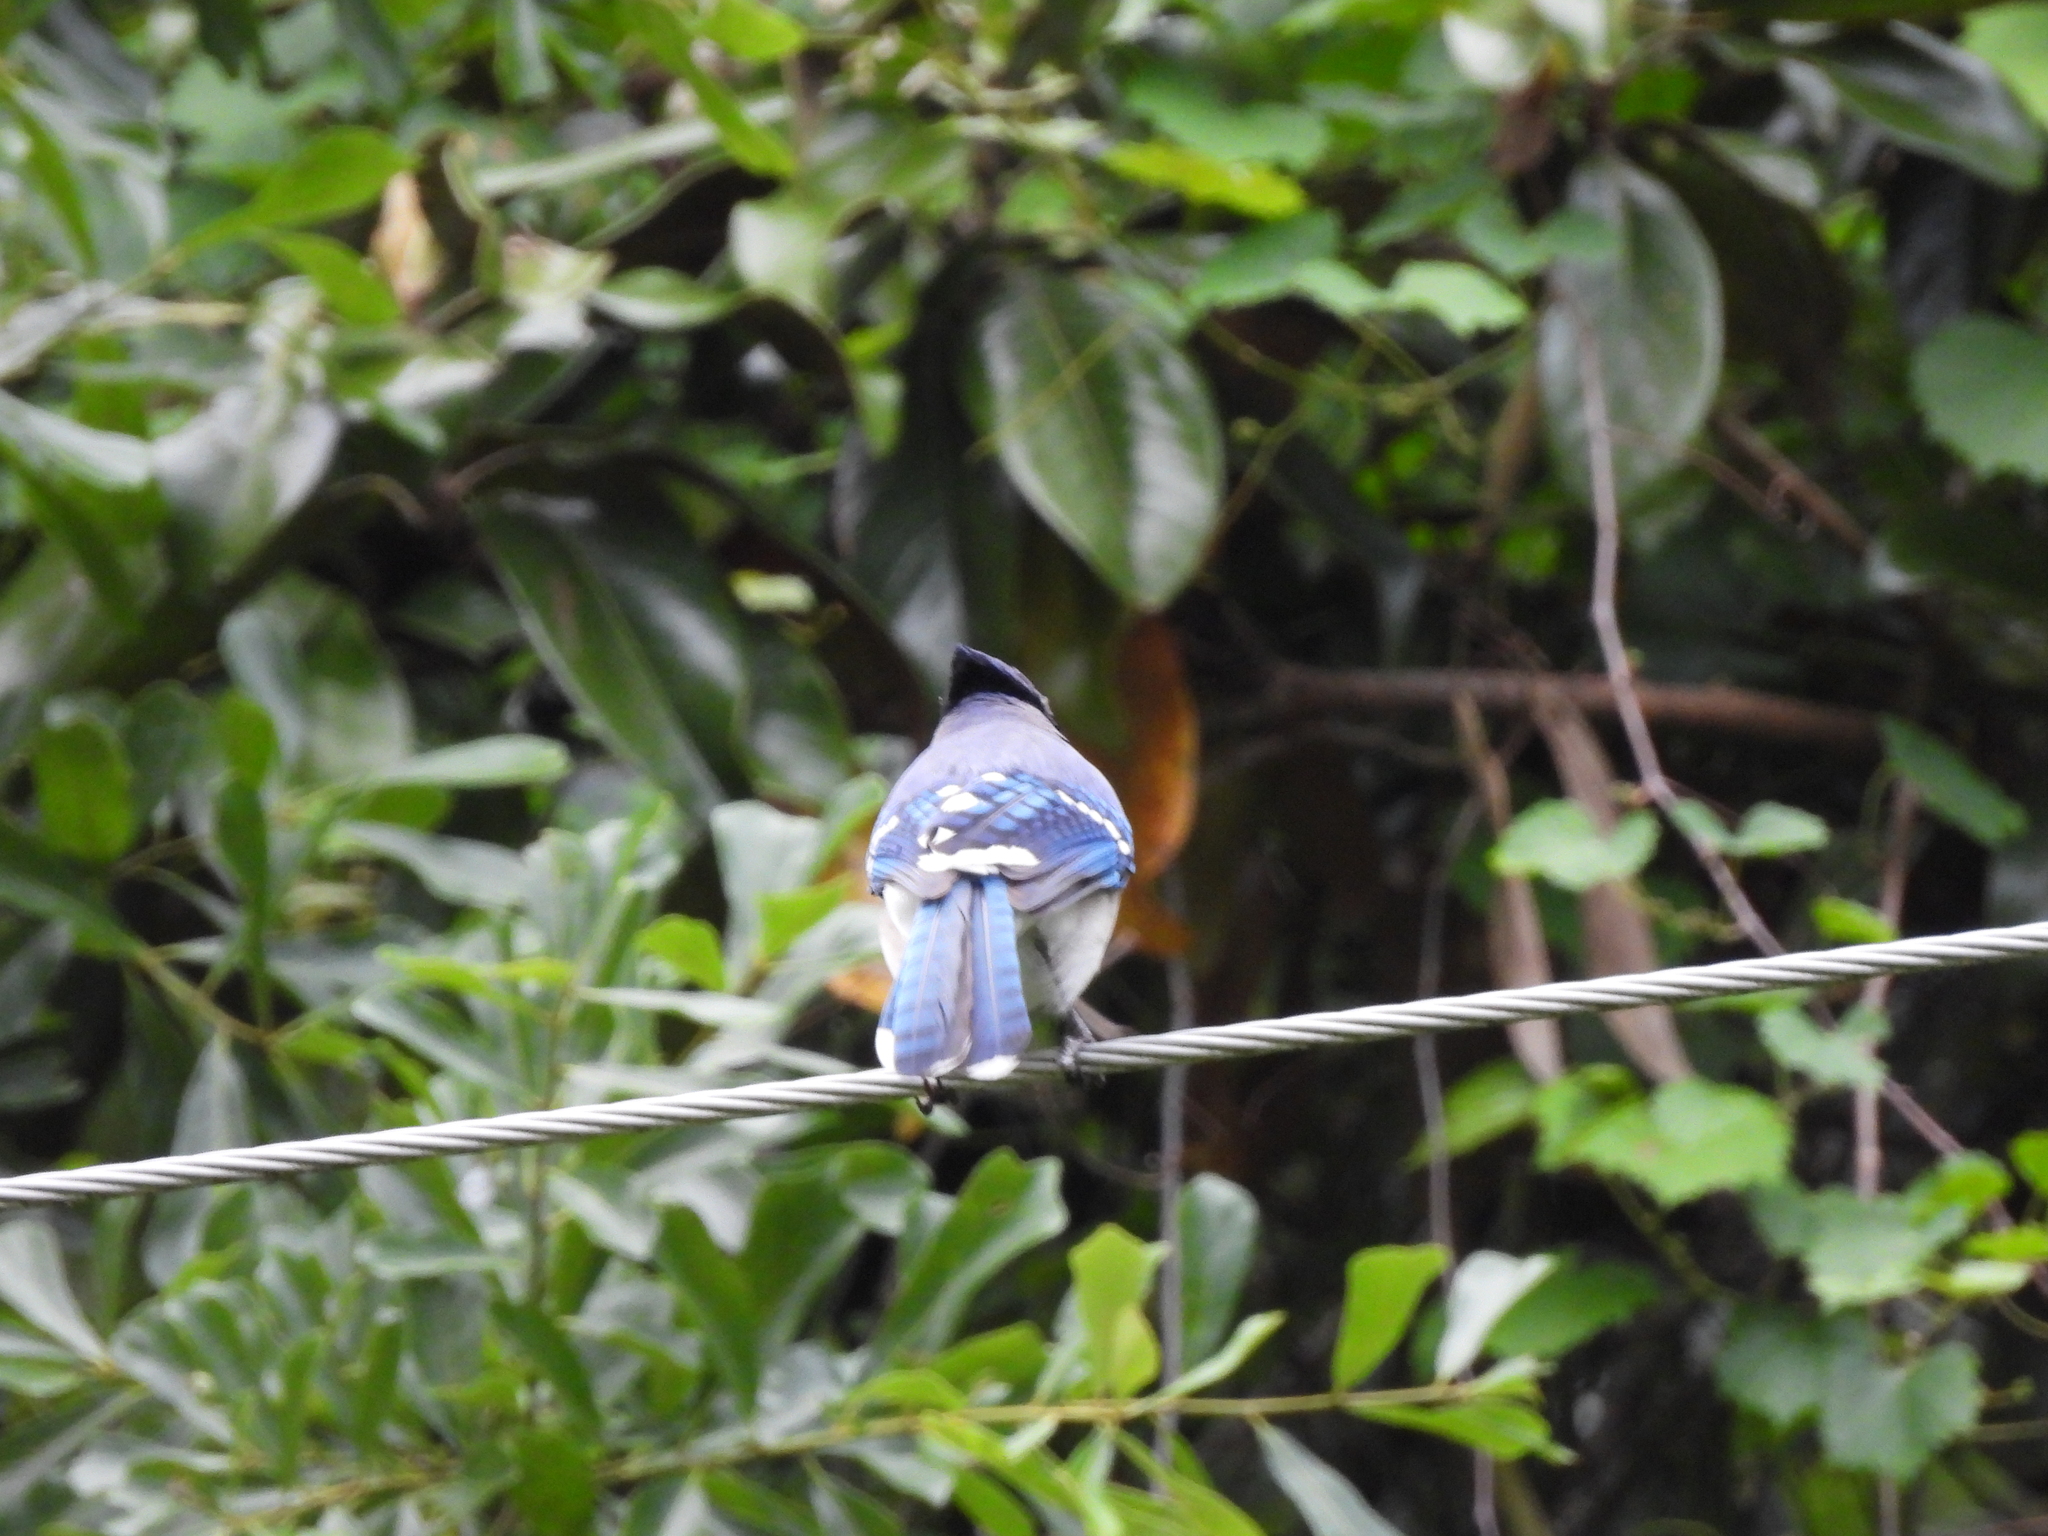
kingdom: Animalia
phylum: Chordata
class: Aves
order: Passeriformes
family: Corvidae
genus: Cyanocitta
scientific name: Cyanocitta cristata
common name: Blue jay
